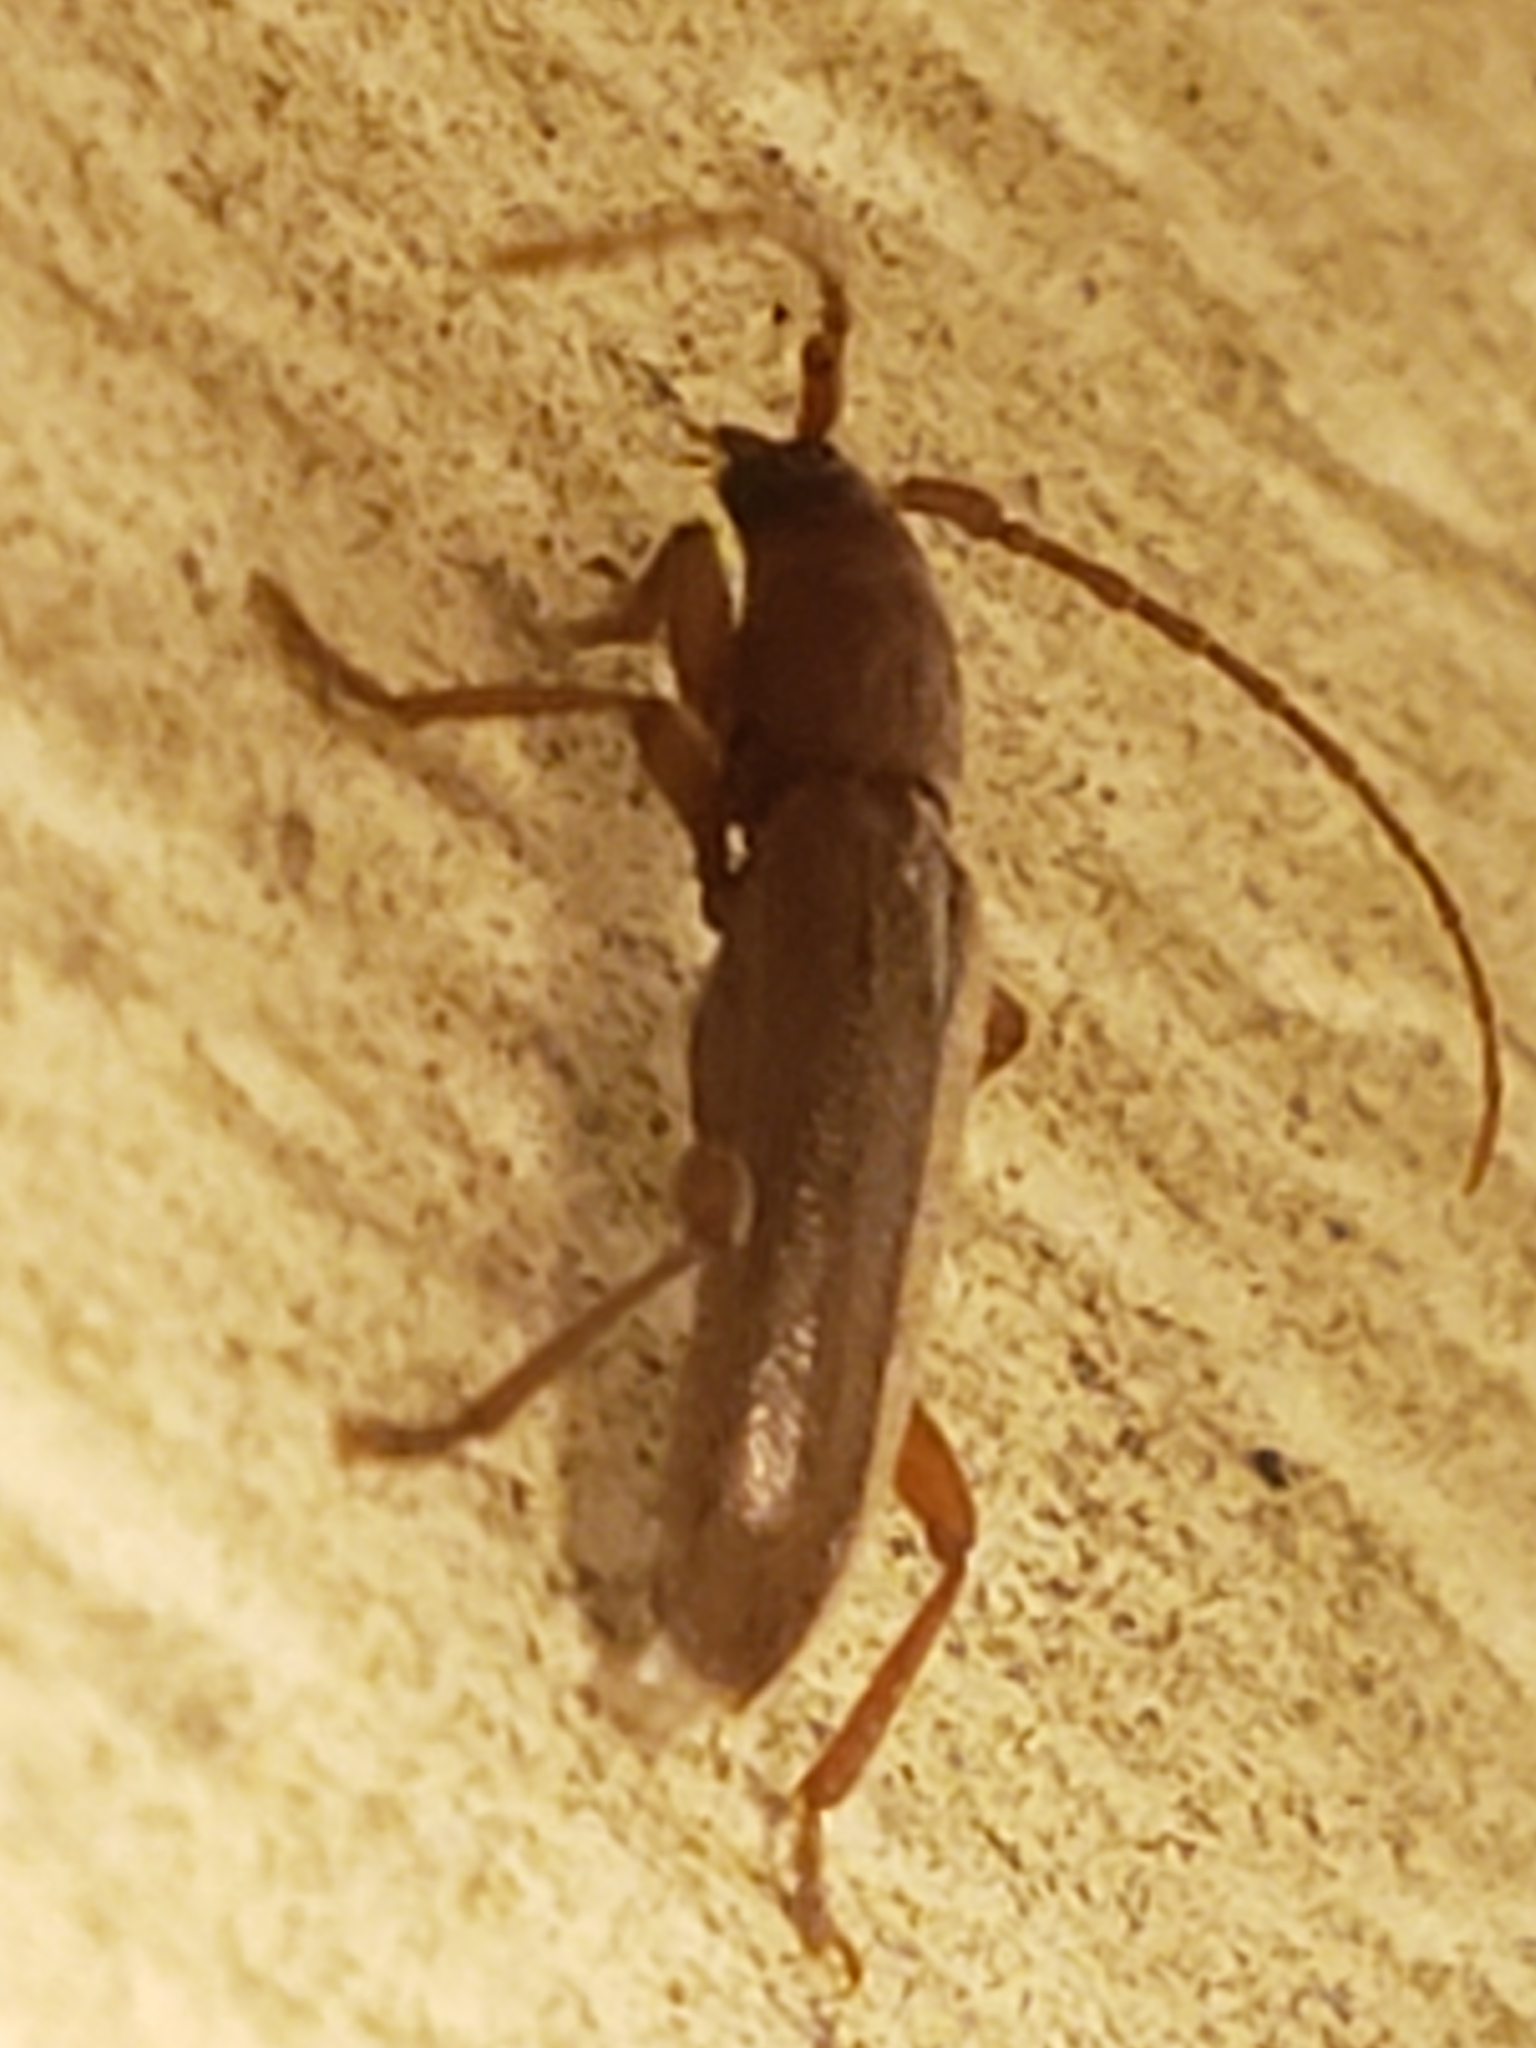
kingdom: Animalia
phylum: Arthropoda
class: Insecta
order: Coleoptera
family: Cerambycidae
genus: Micranoplium
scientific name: Micranoplium unicolor
